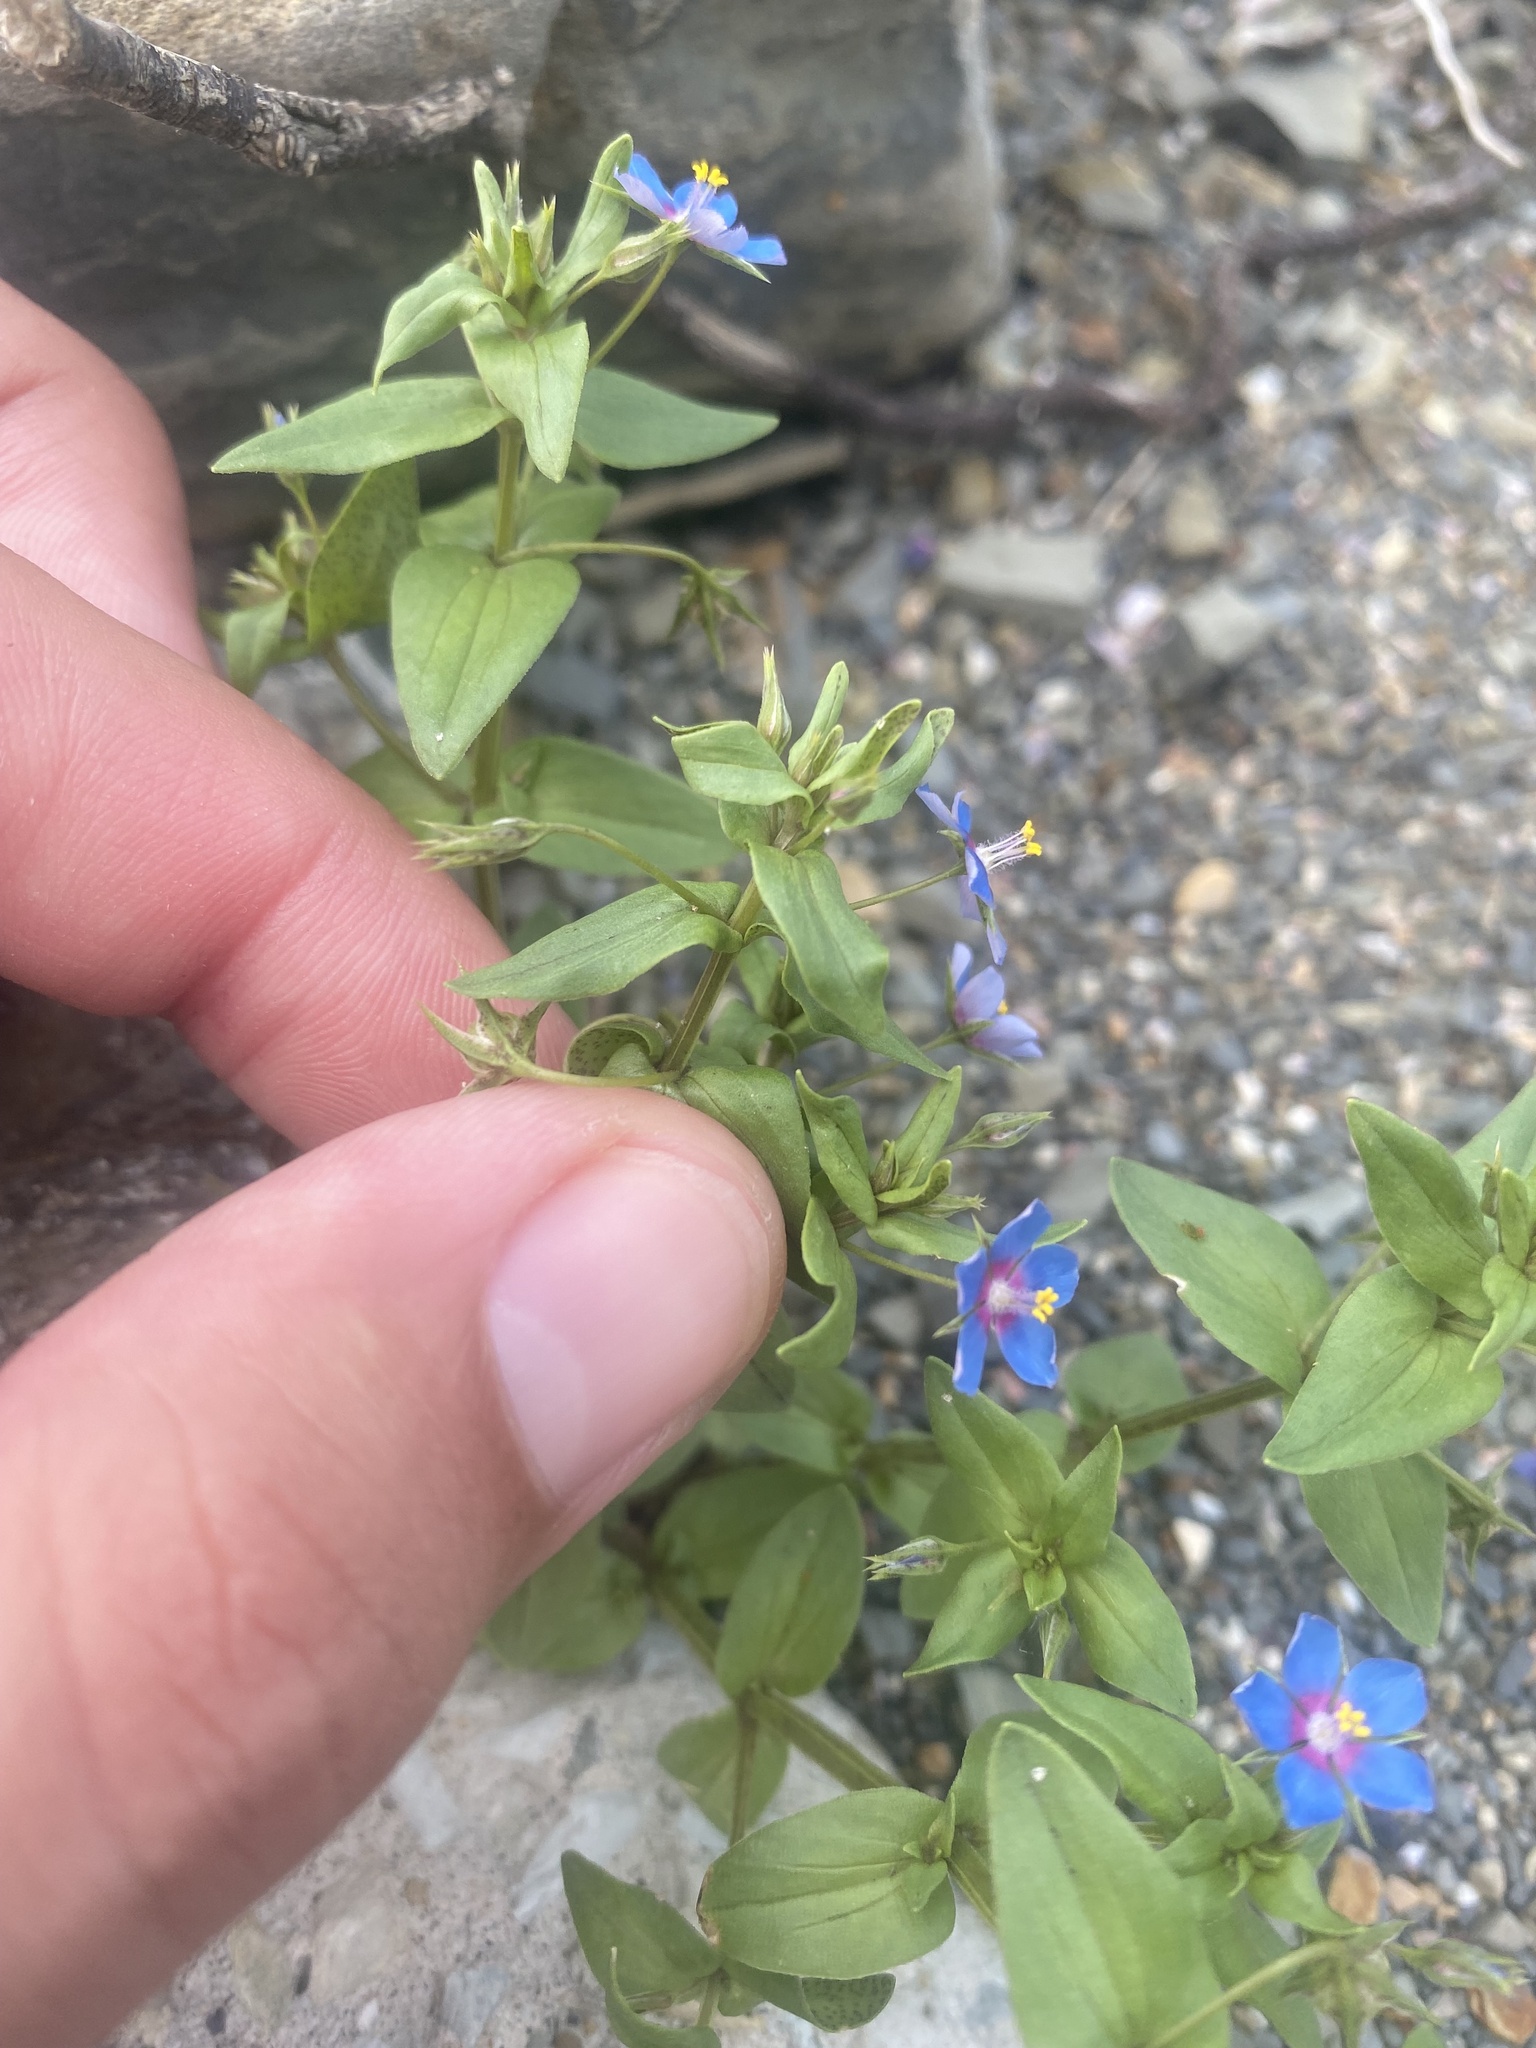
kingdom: Plantae
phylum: Tracheophyta
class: Magnoliopsida
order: Ericales
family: Primulaceae
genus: Lysimachia
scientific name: Lysimachia foemina
